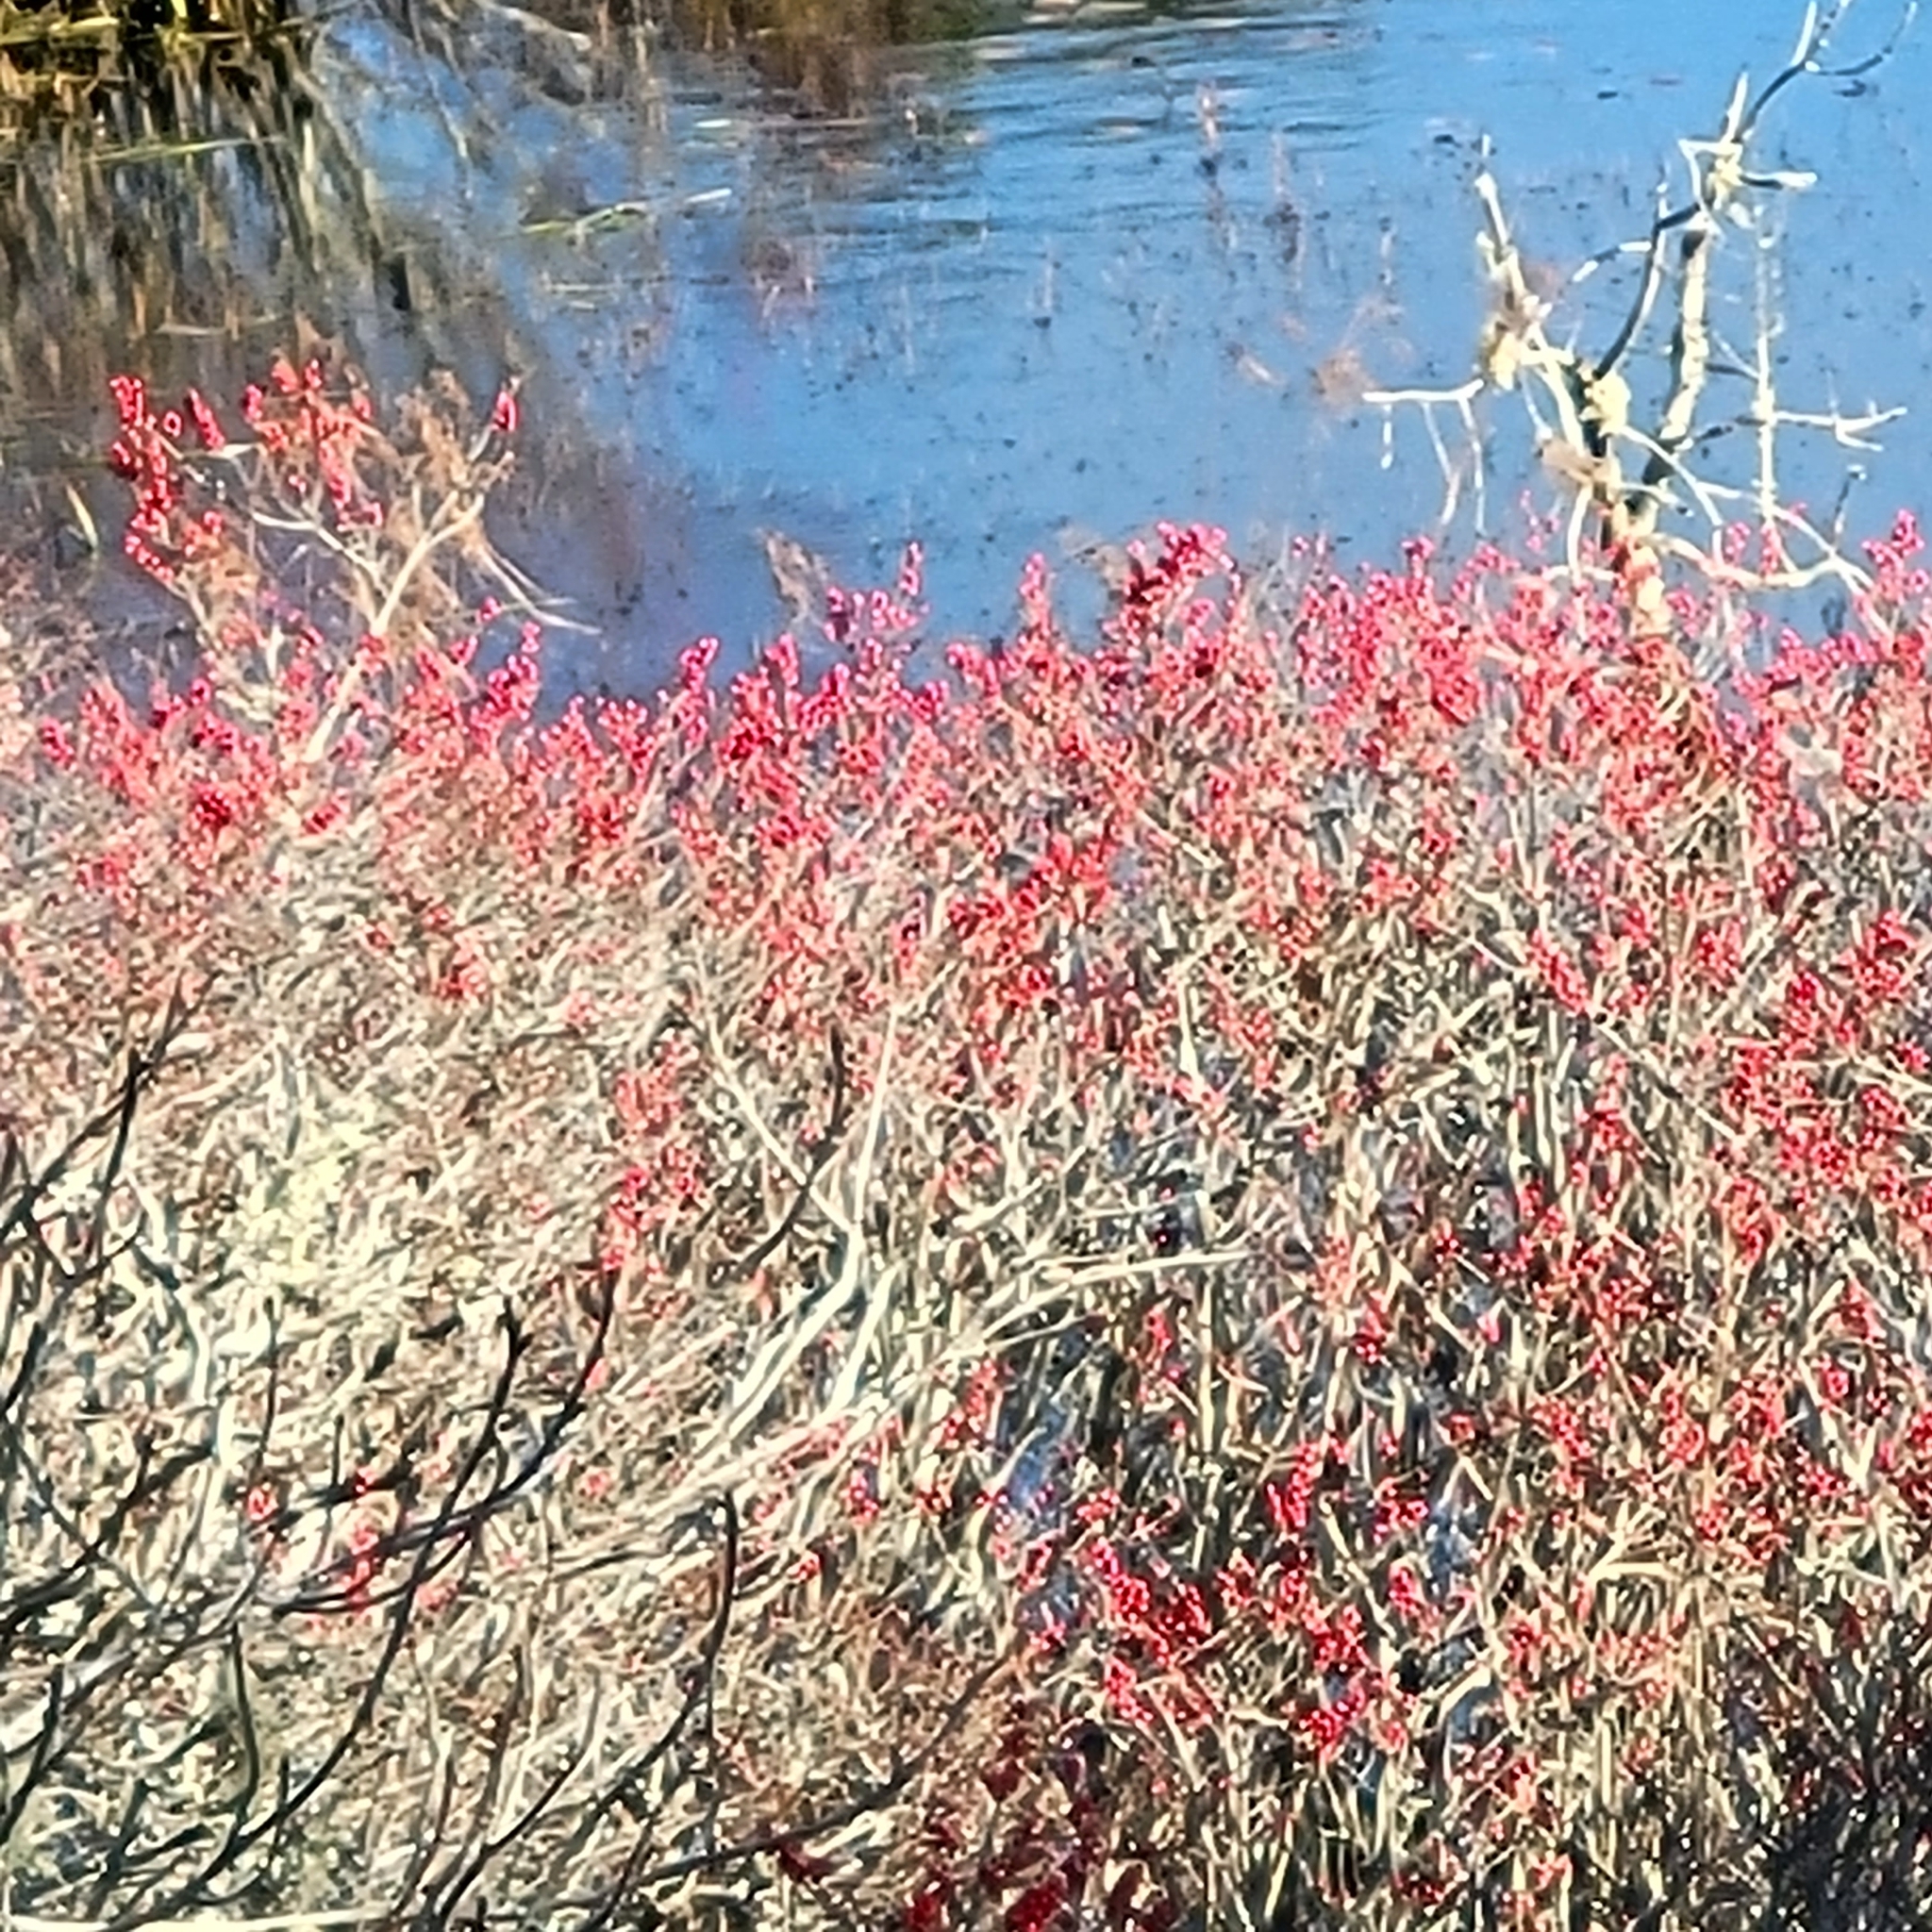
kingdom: Plantae
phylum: Tracheophyta
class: Magnoliopsida
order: Aquifoliales
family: Aquifoliaceae
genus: Ilex
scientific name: Ilex verticillata
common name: Virginia winterberry
